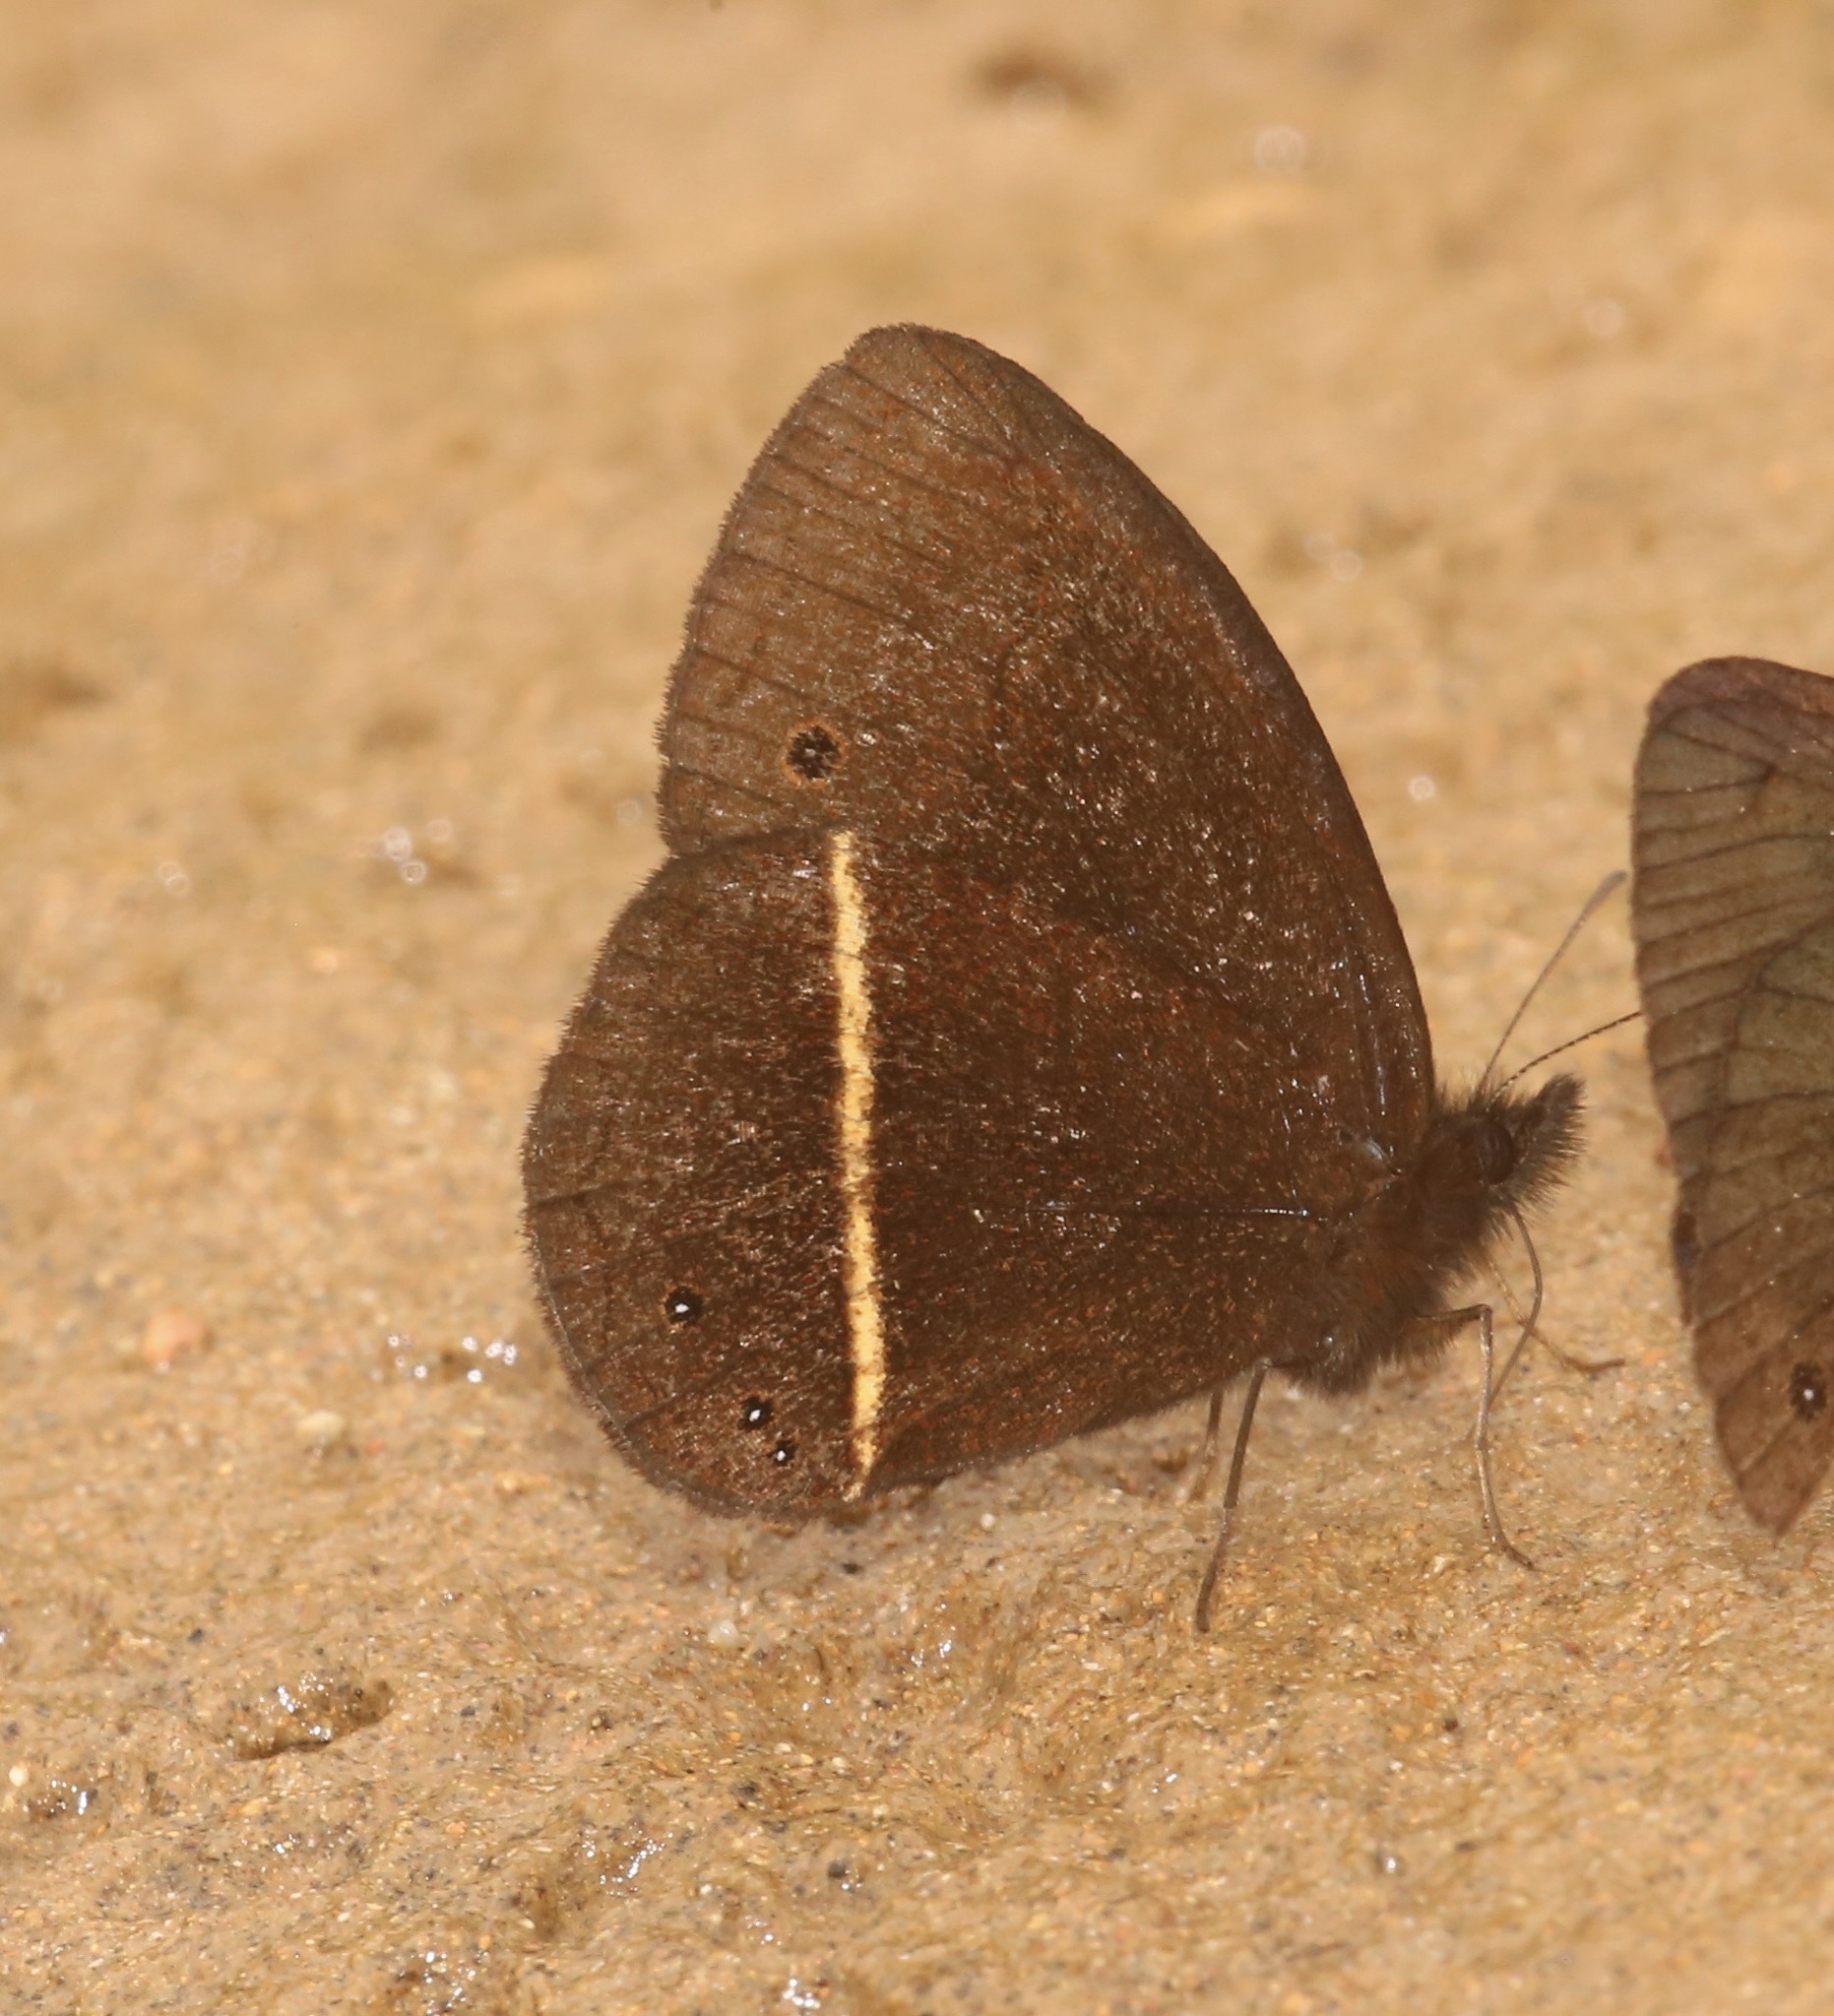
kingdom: Animalia
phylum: Arthropoda
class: Insecta
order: Lepidoptera
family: Nymphalidae
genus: Manerebia
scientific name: Manerebia inderena
